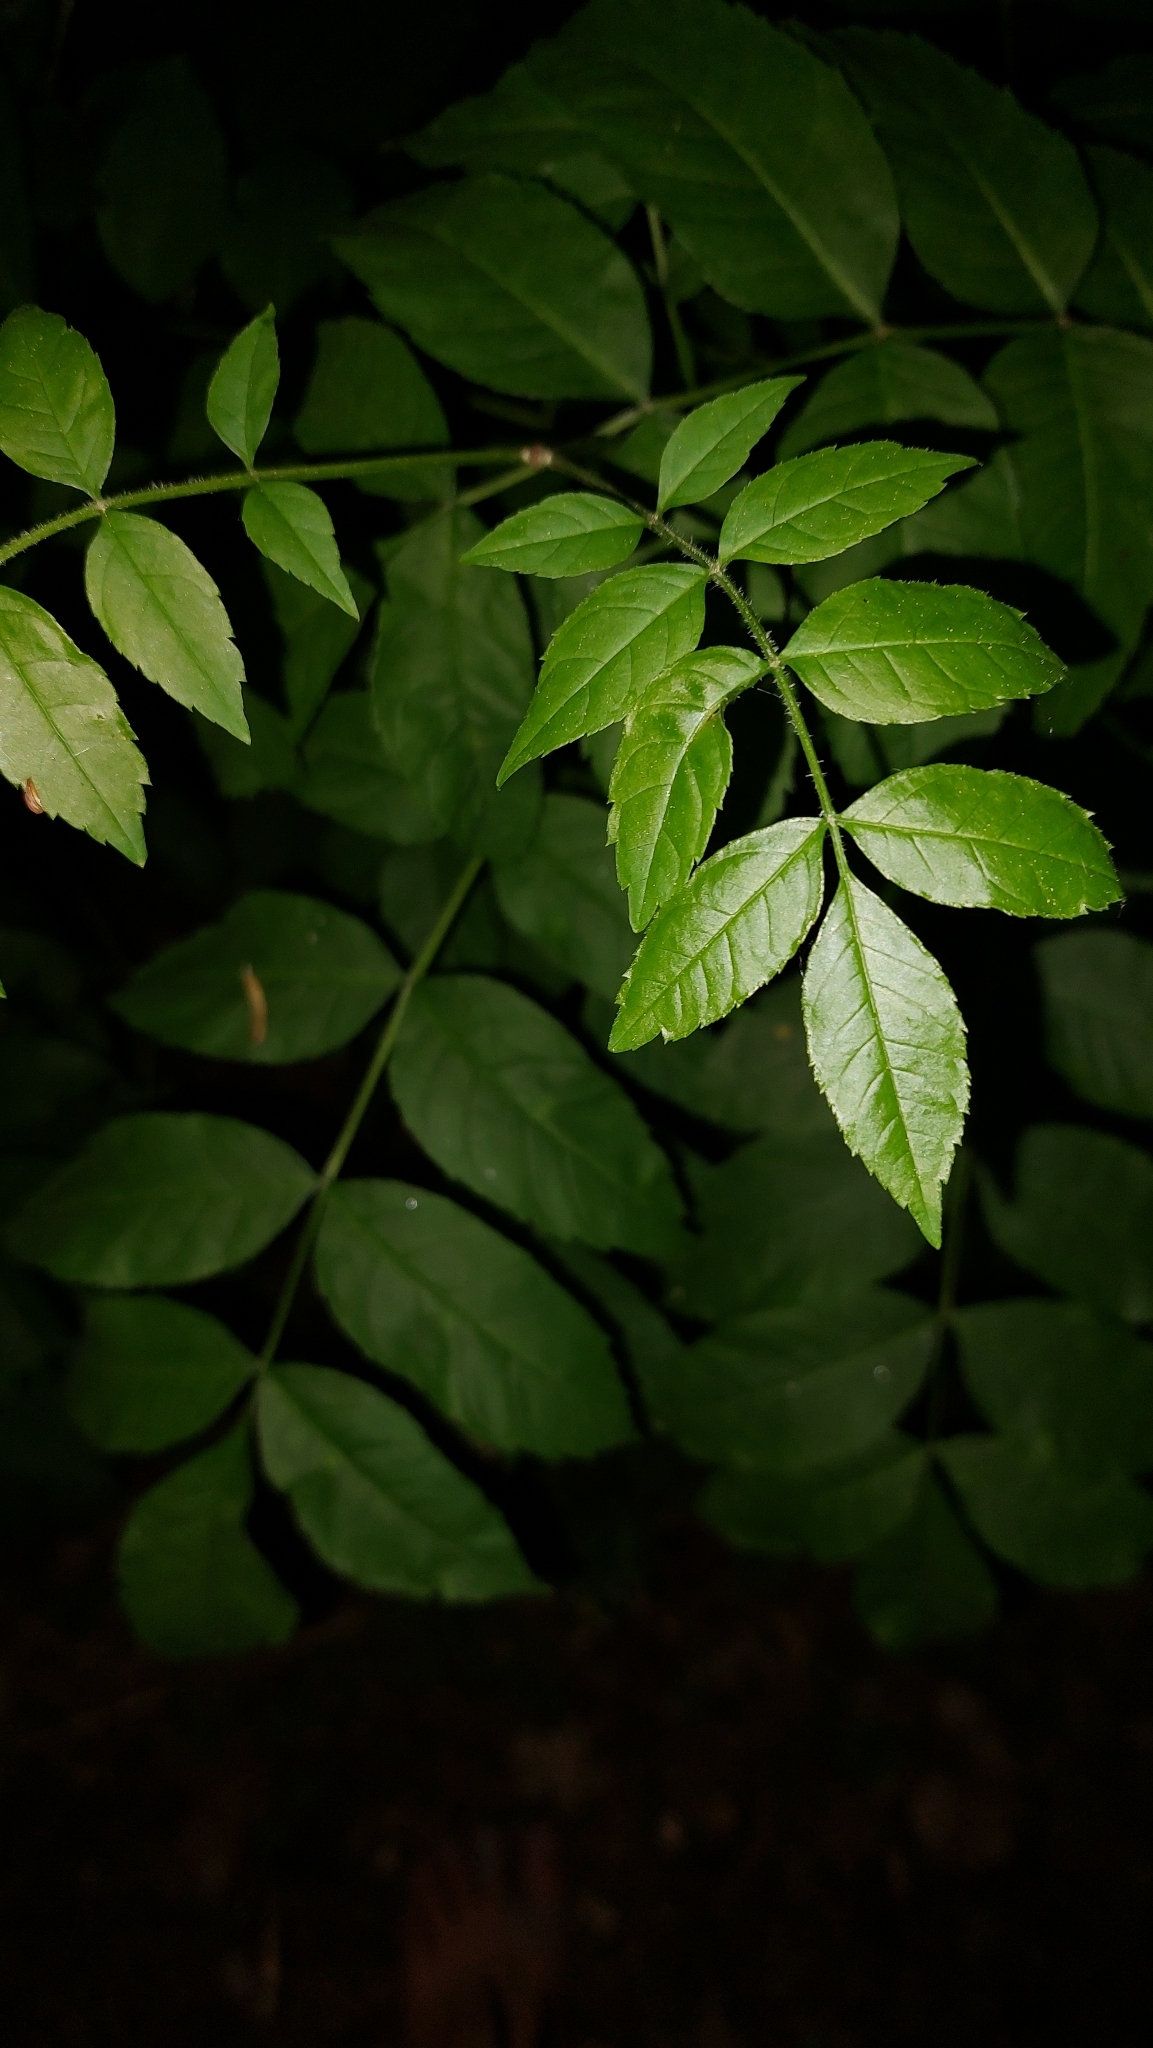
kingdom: Plantae
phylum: Tracheophyta
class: Magnoliopsida
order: Lamiales
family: Oleaceae
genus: Fraxinus
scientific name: Fraxinus excelsior
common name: European ash
